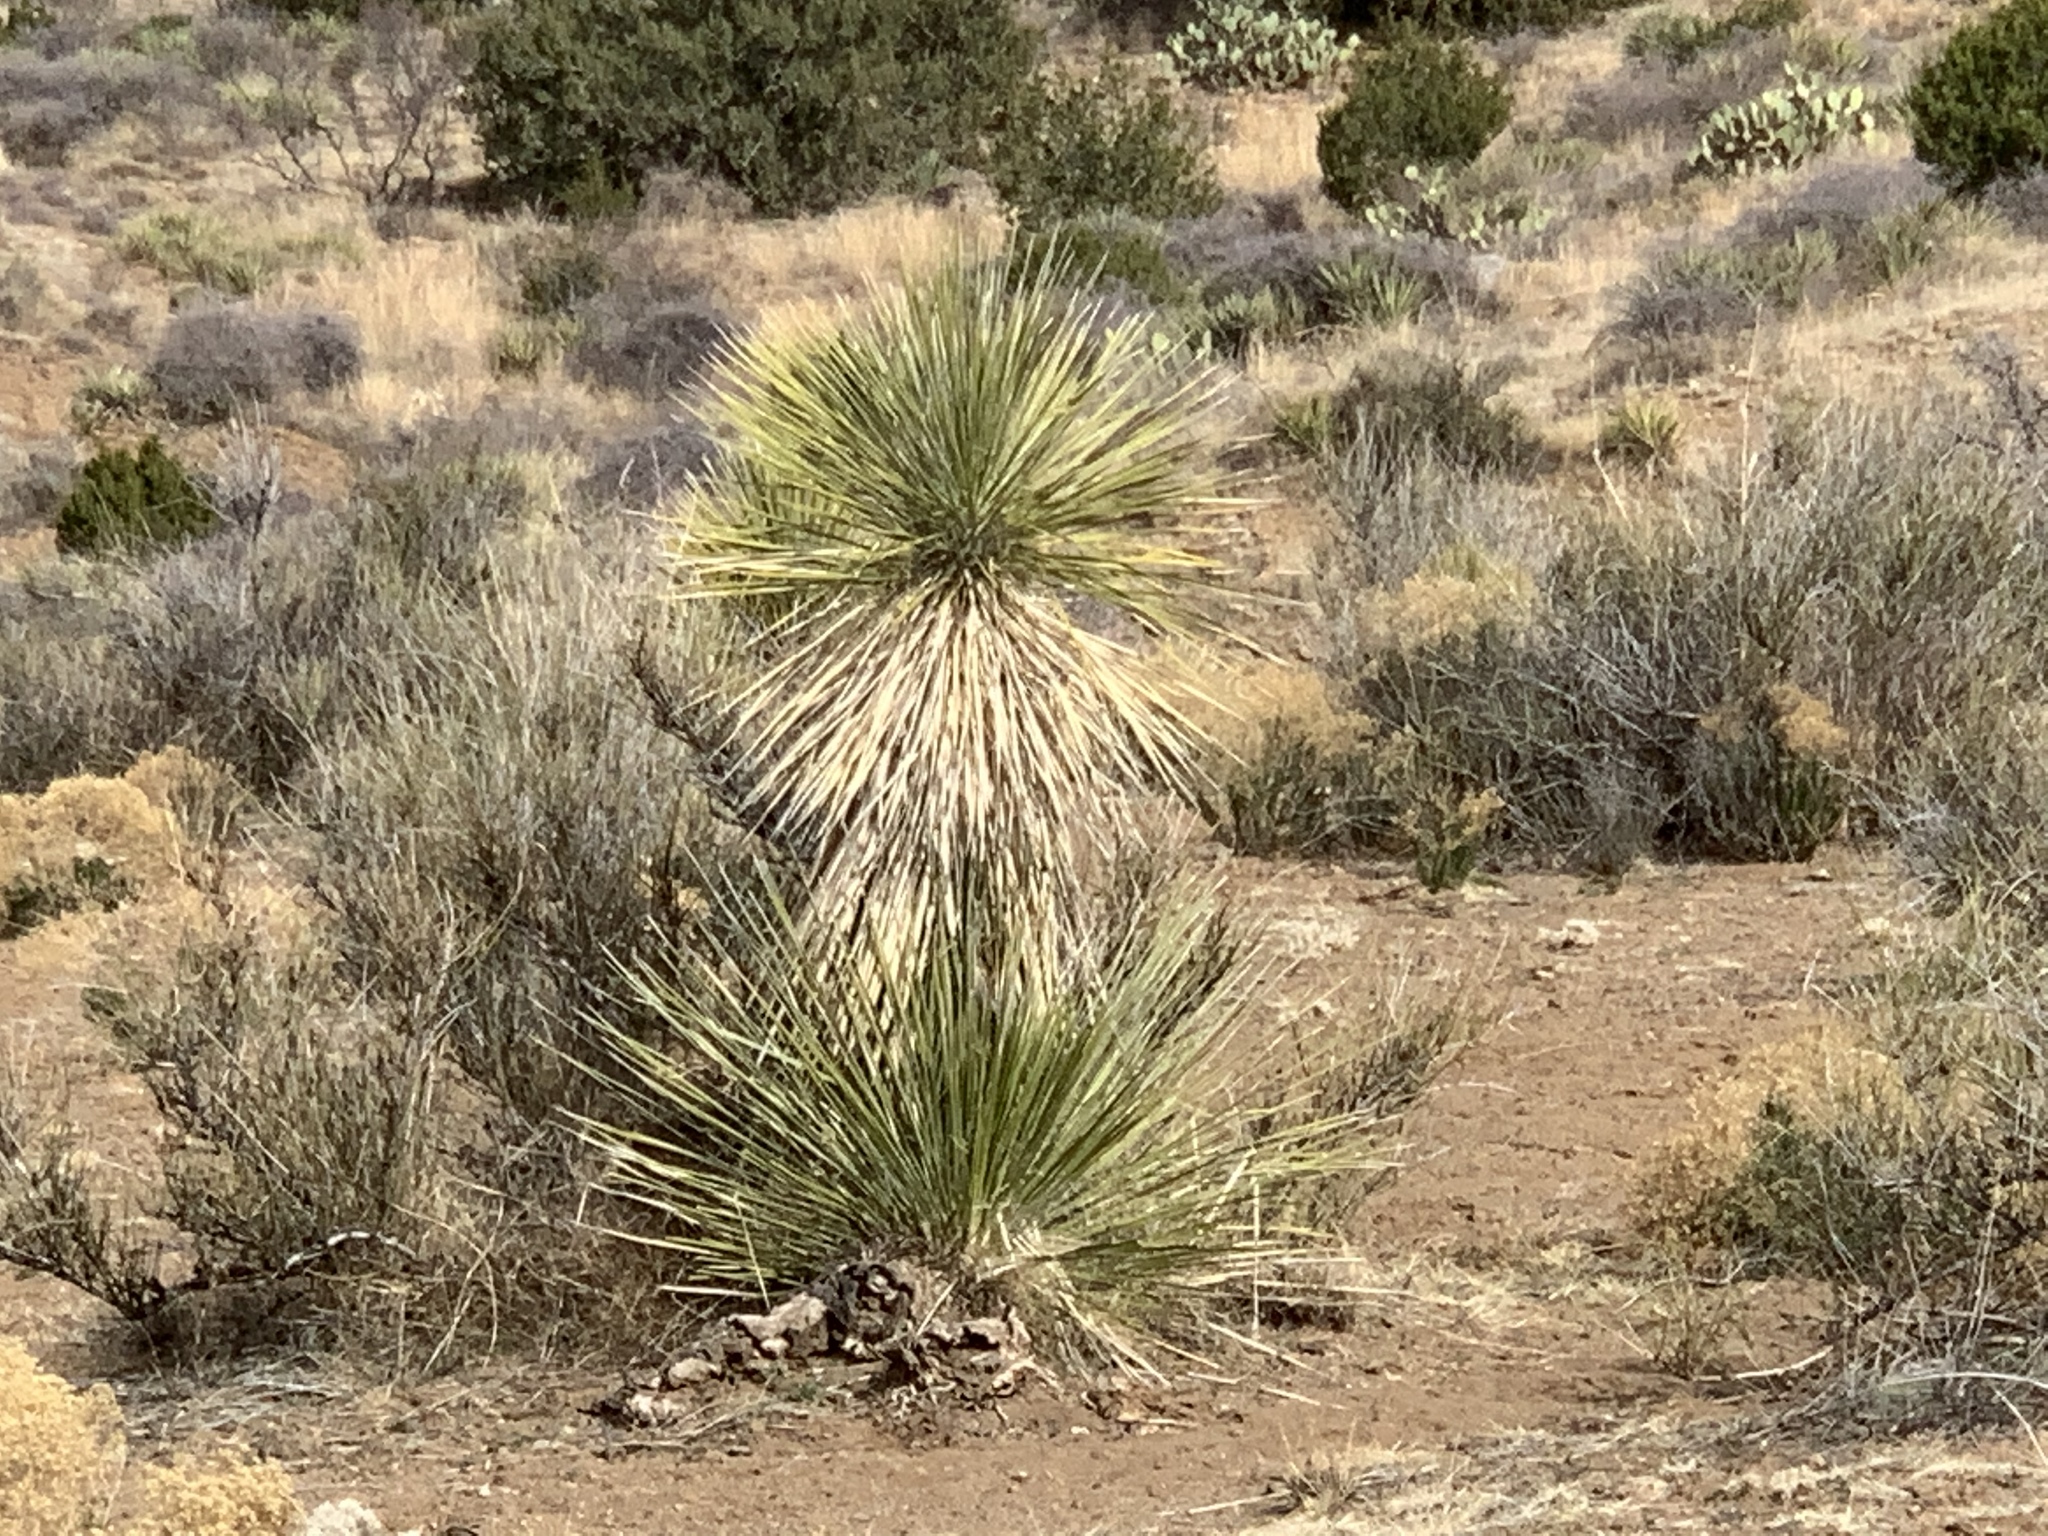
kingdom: Plantae
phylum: Tracheophyta
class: Liliopsida
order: Asparagales
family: Asparagaceae
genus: Yucca
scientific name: Yucca elata
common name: Palmella
